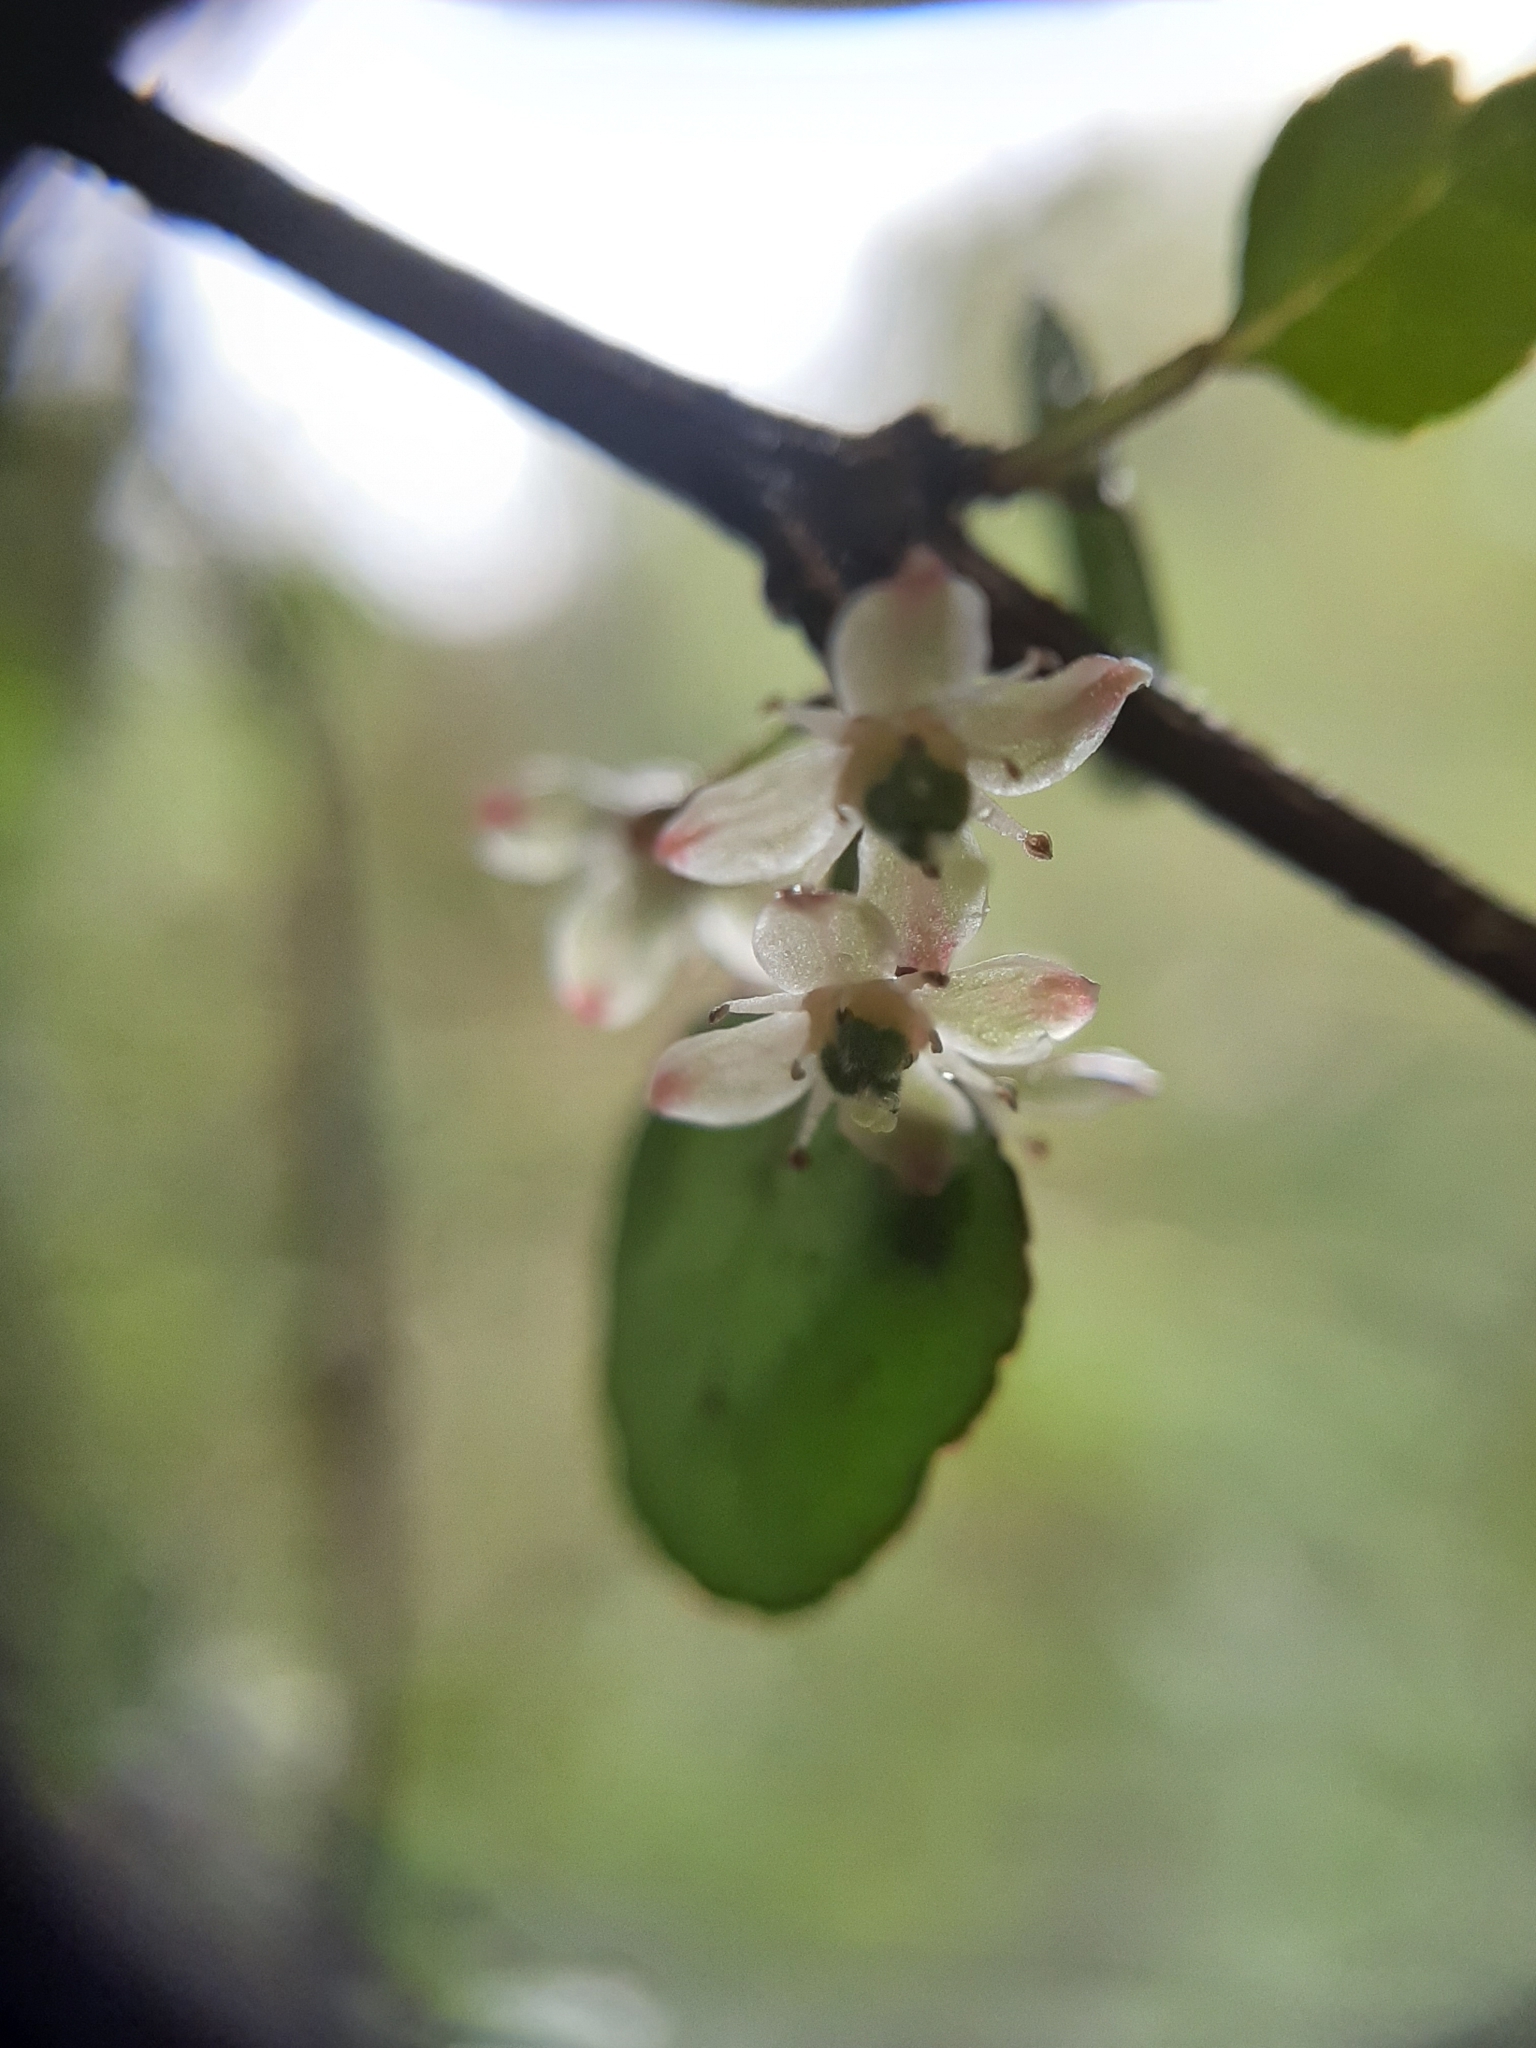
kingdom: Plantae
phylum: Tracheophyta
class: Magnoliopsida
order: Sapindales
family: Rutaceae
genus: Melicope
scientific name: Melicope simplex
